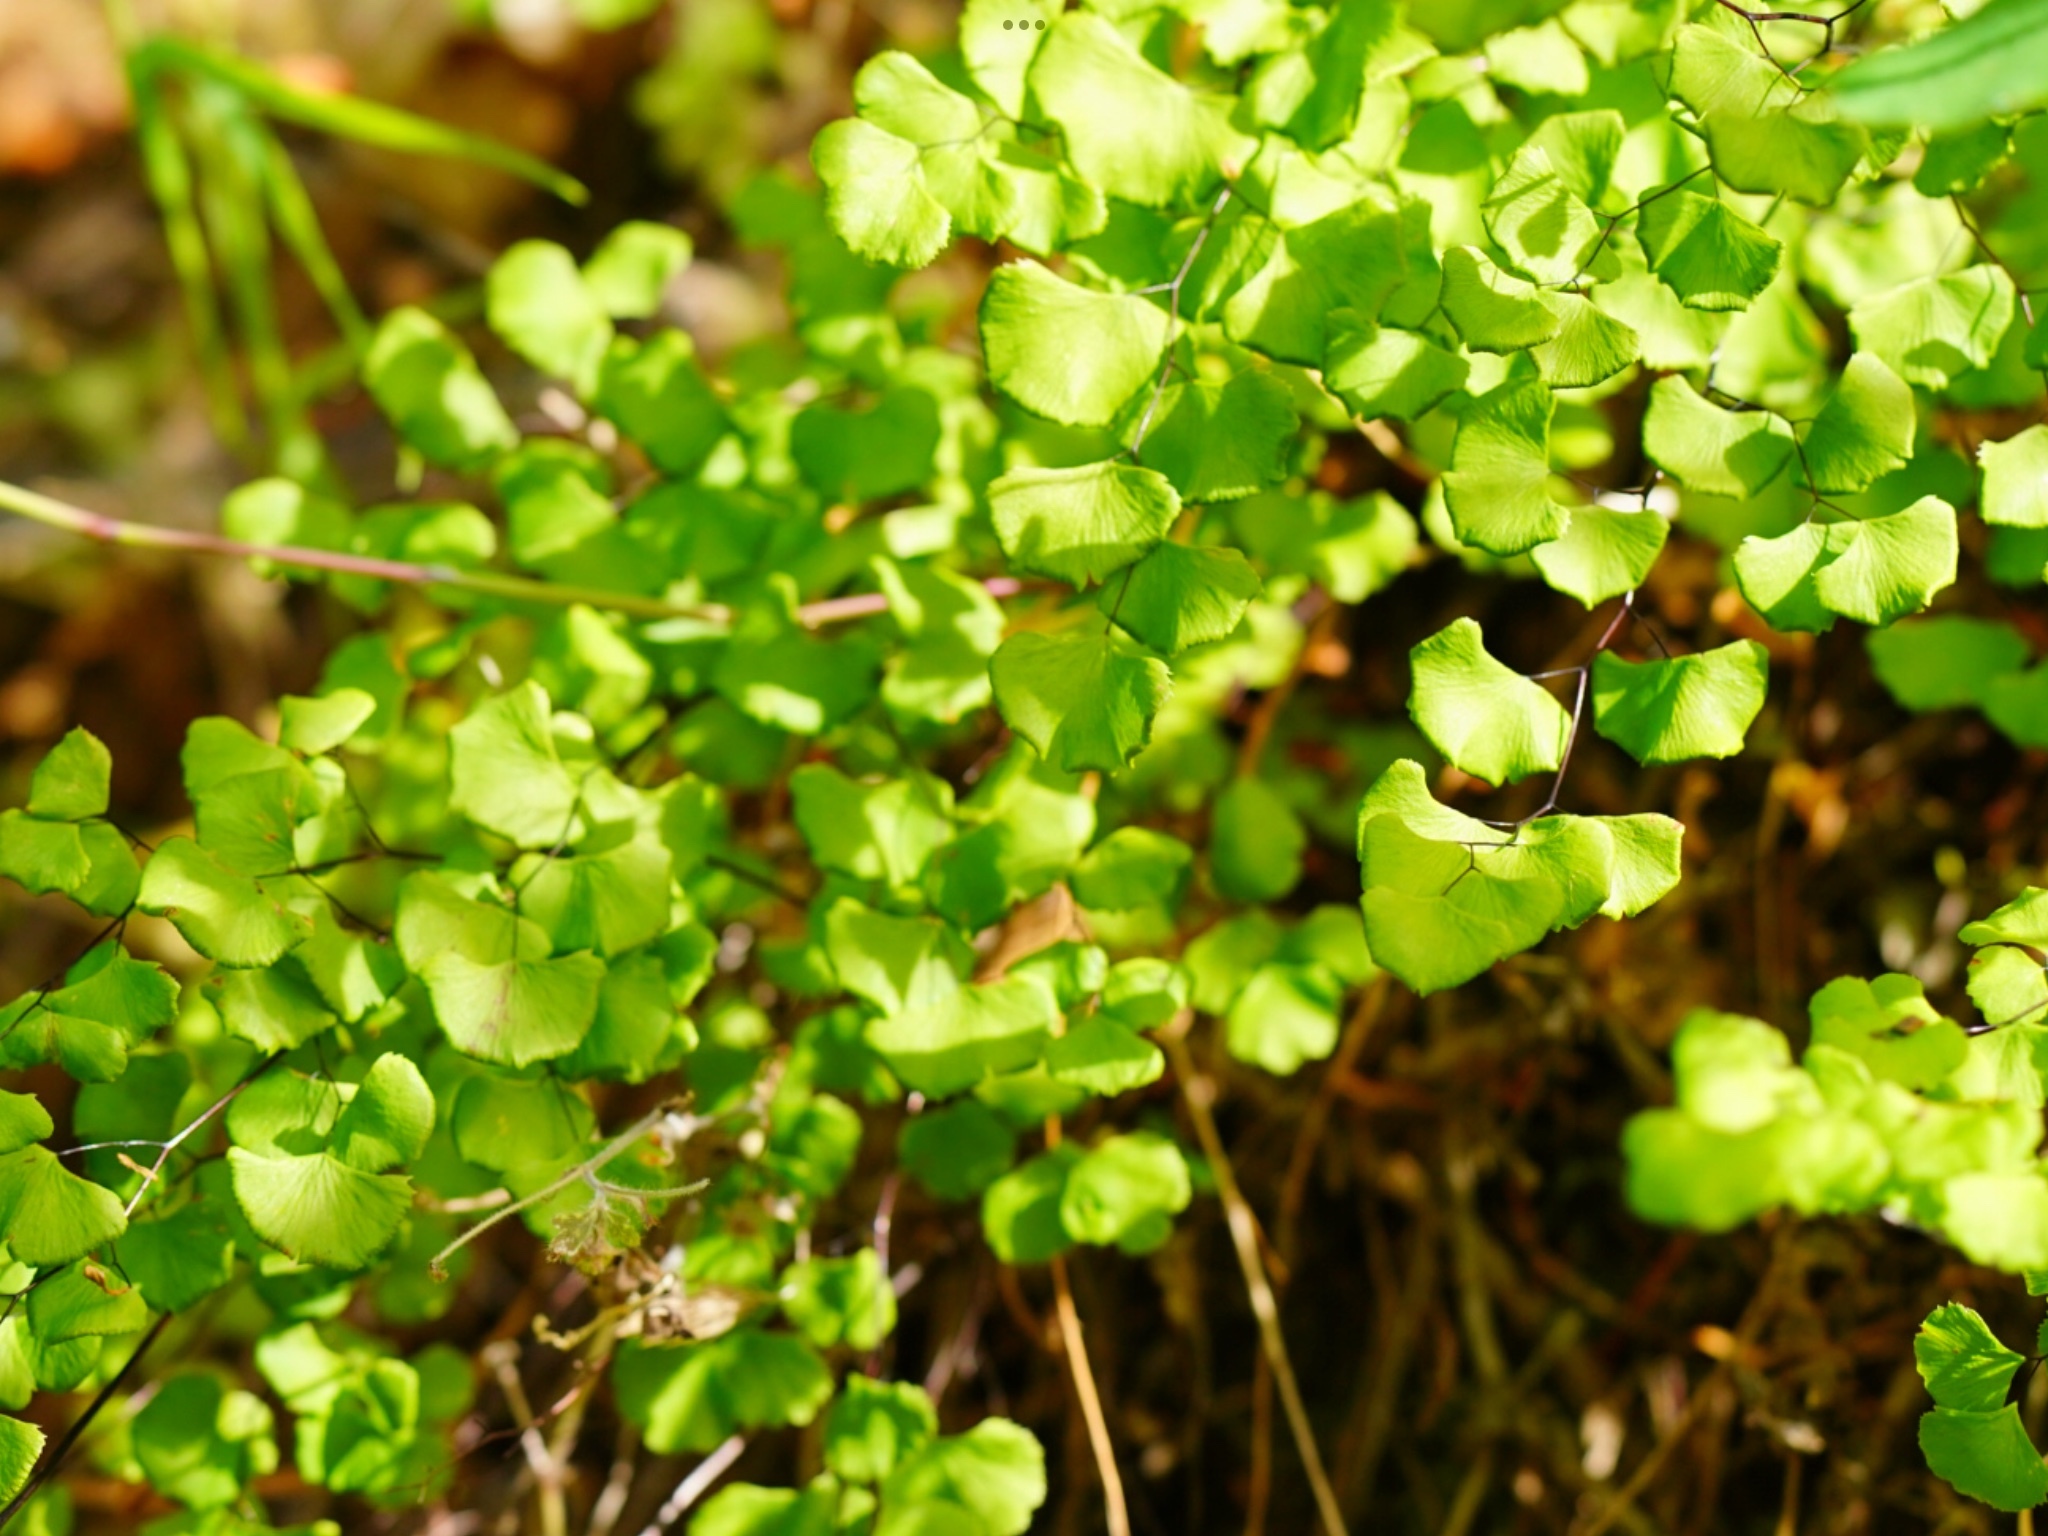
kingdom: Plantae
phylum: Tracheophyta
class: Polypodiopsida
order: Polypodiales
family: Pteridaceae
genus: Adiantum
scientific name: Adiantum jordanii
